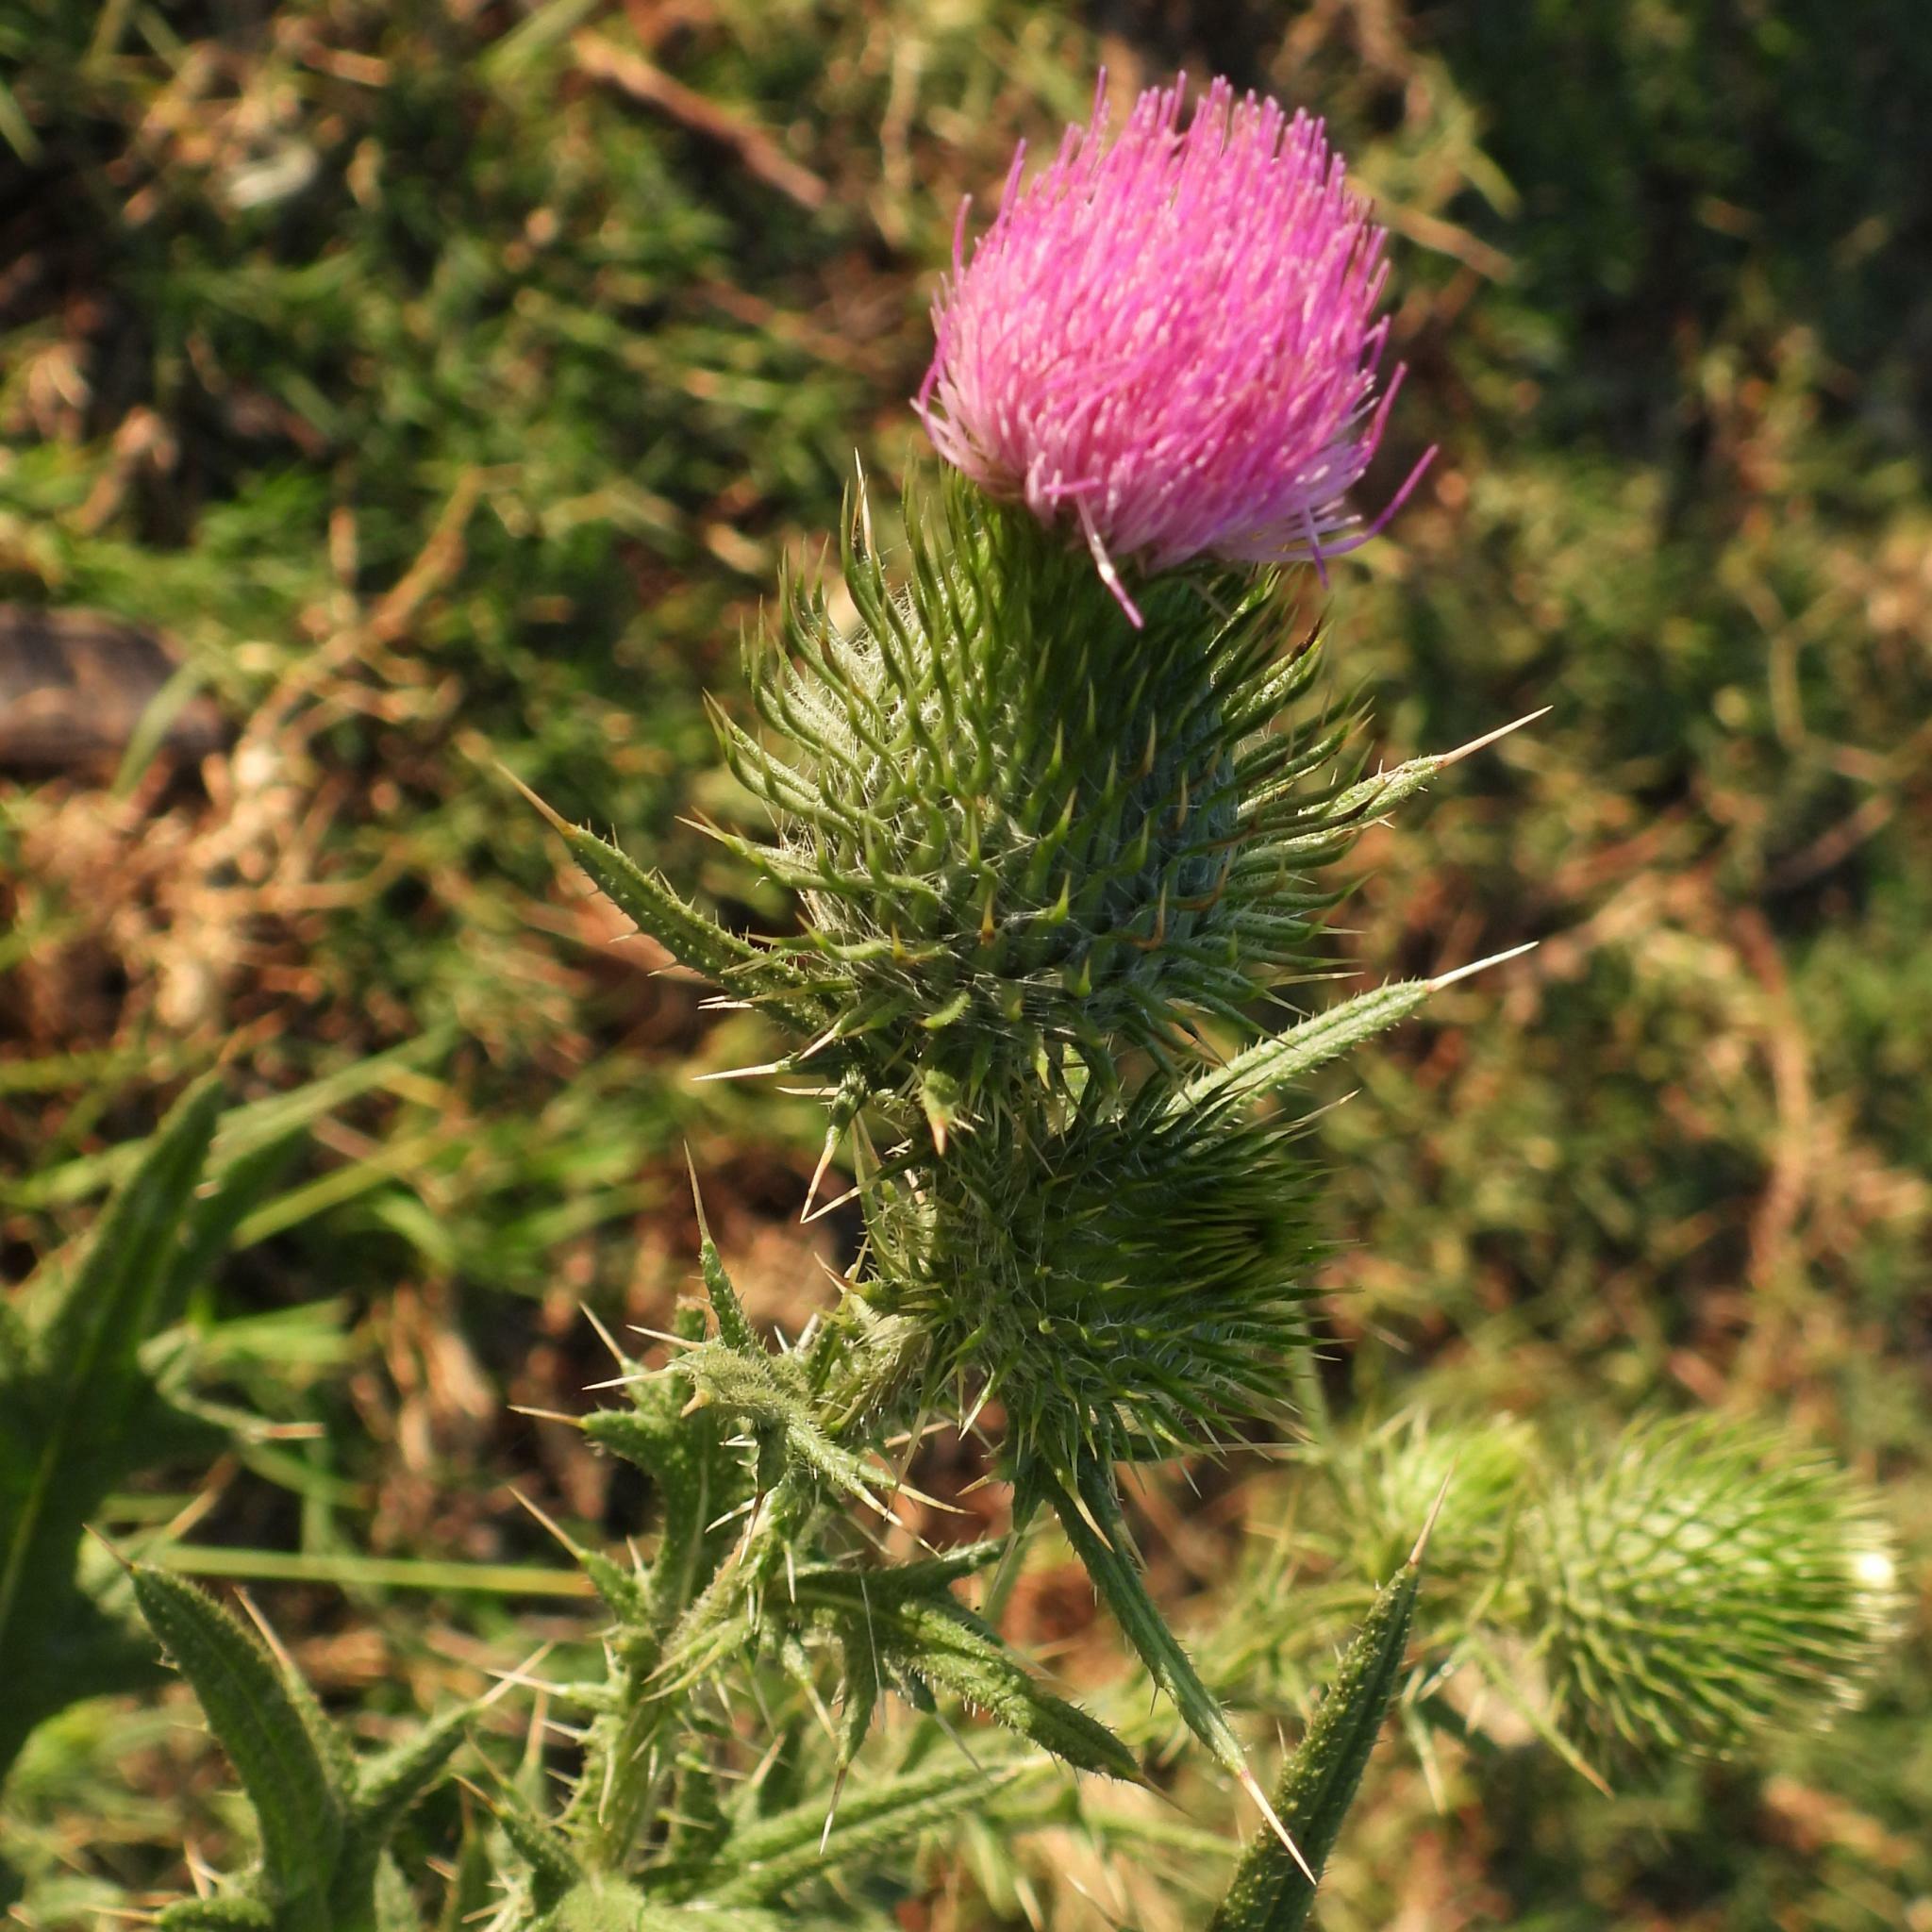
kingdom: Plantae
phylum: Tracheophyta
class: Magnoliopsida
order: Asterales
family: Asteraceae
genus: Cirsium
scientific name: Cirsium vulgare
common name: Bull thistle
